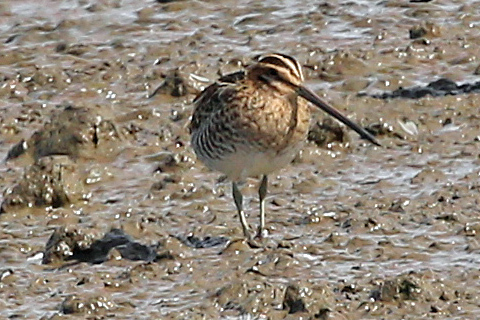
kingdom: Animalia
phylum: Chordata
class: Aves
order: Charadriiformes
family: Scolopacidae
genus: Gallinago
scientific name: Gallinago gallinago
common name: Common snipe
